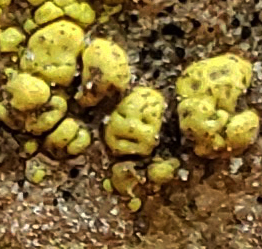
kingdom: Fungi
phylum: Ascomycota
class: Lecanoromycetes
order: Acarosporales
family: Acarosporaceae
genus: Pleopsidium
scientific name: Pleopsidium oxytonum
